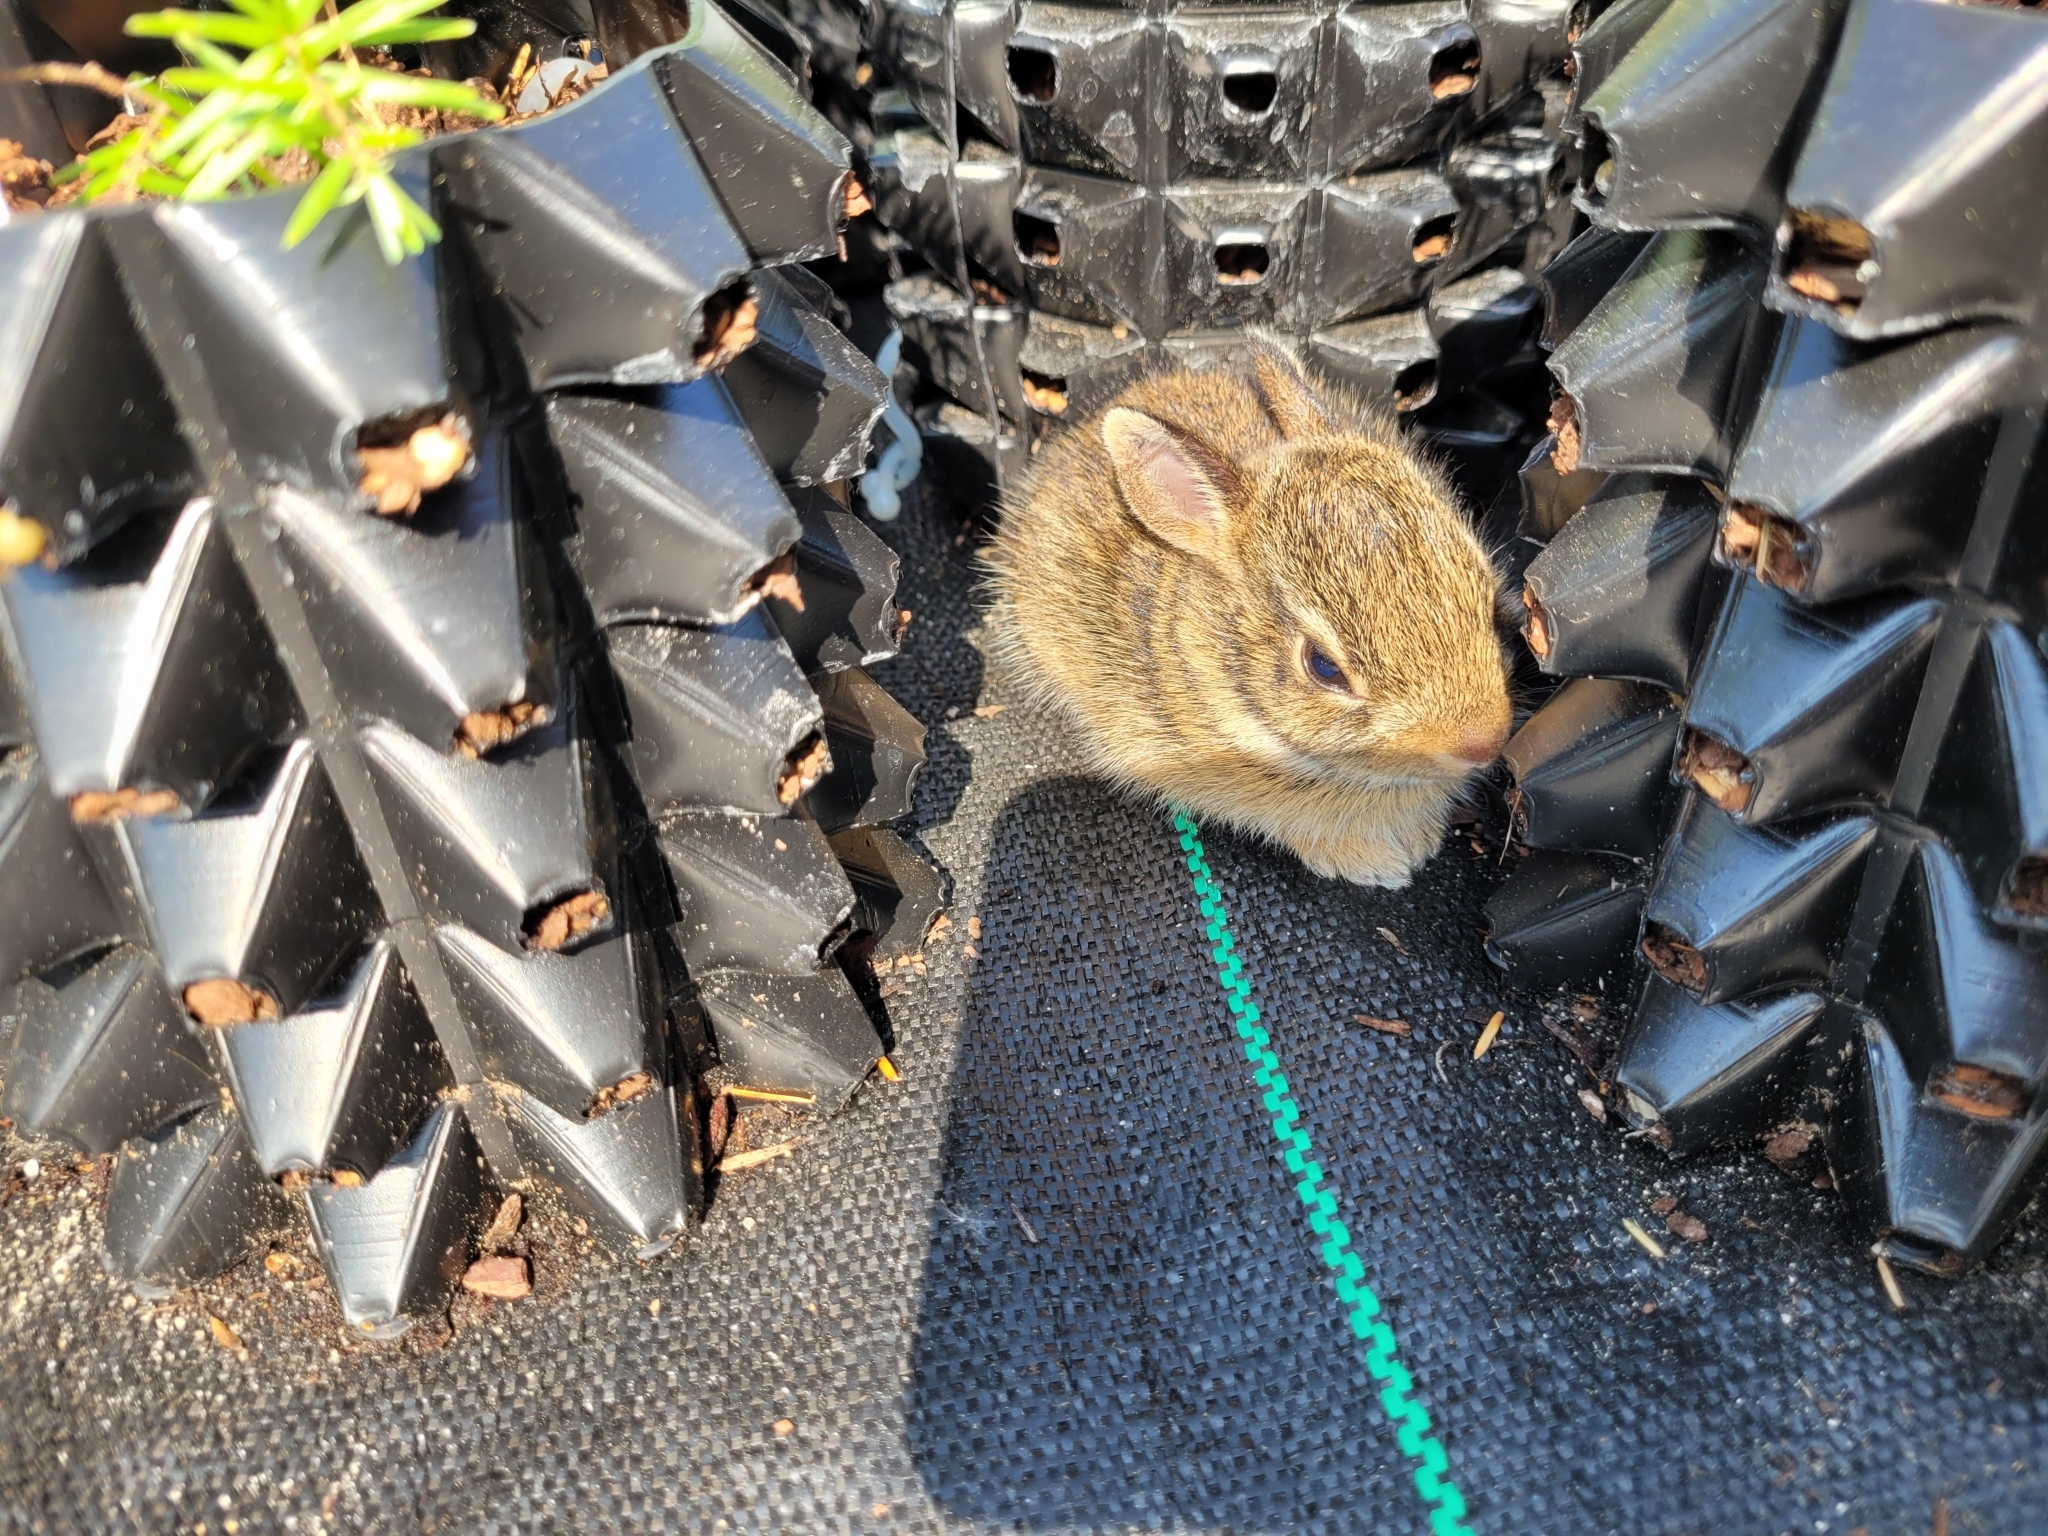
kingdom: Animalia
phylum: Chordata
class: Mammalia
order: Lagomorpha
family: Leporidae
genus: Sylvilagus
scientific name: Sylvilagus floridanus
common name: Eastern cottontail
